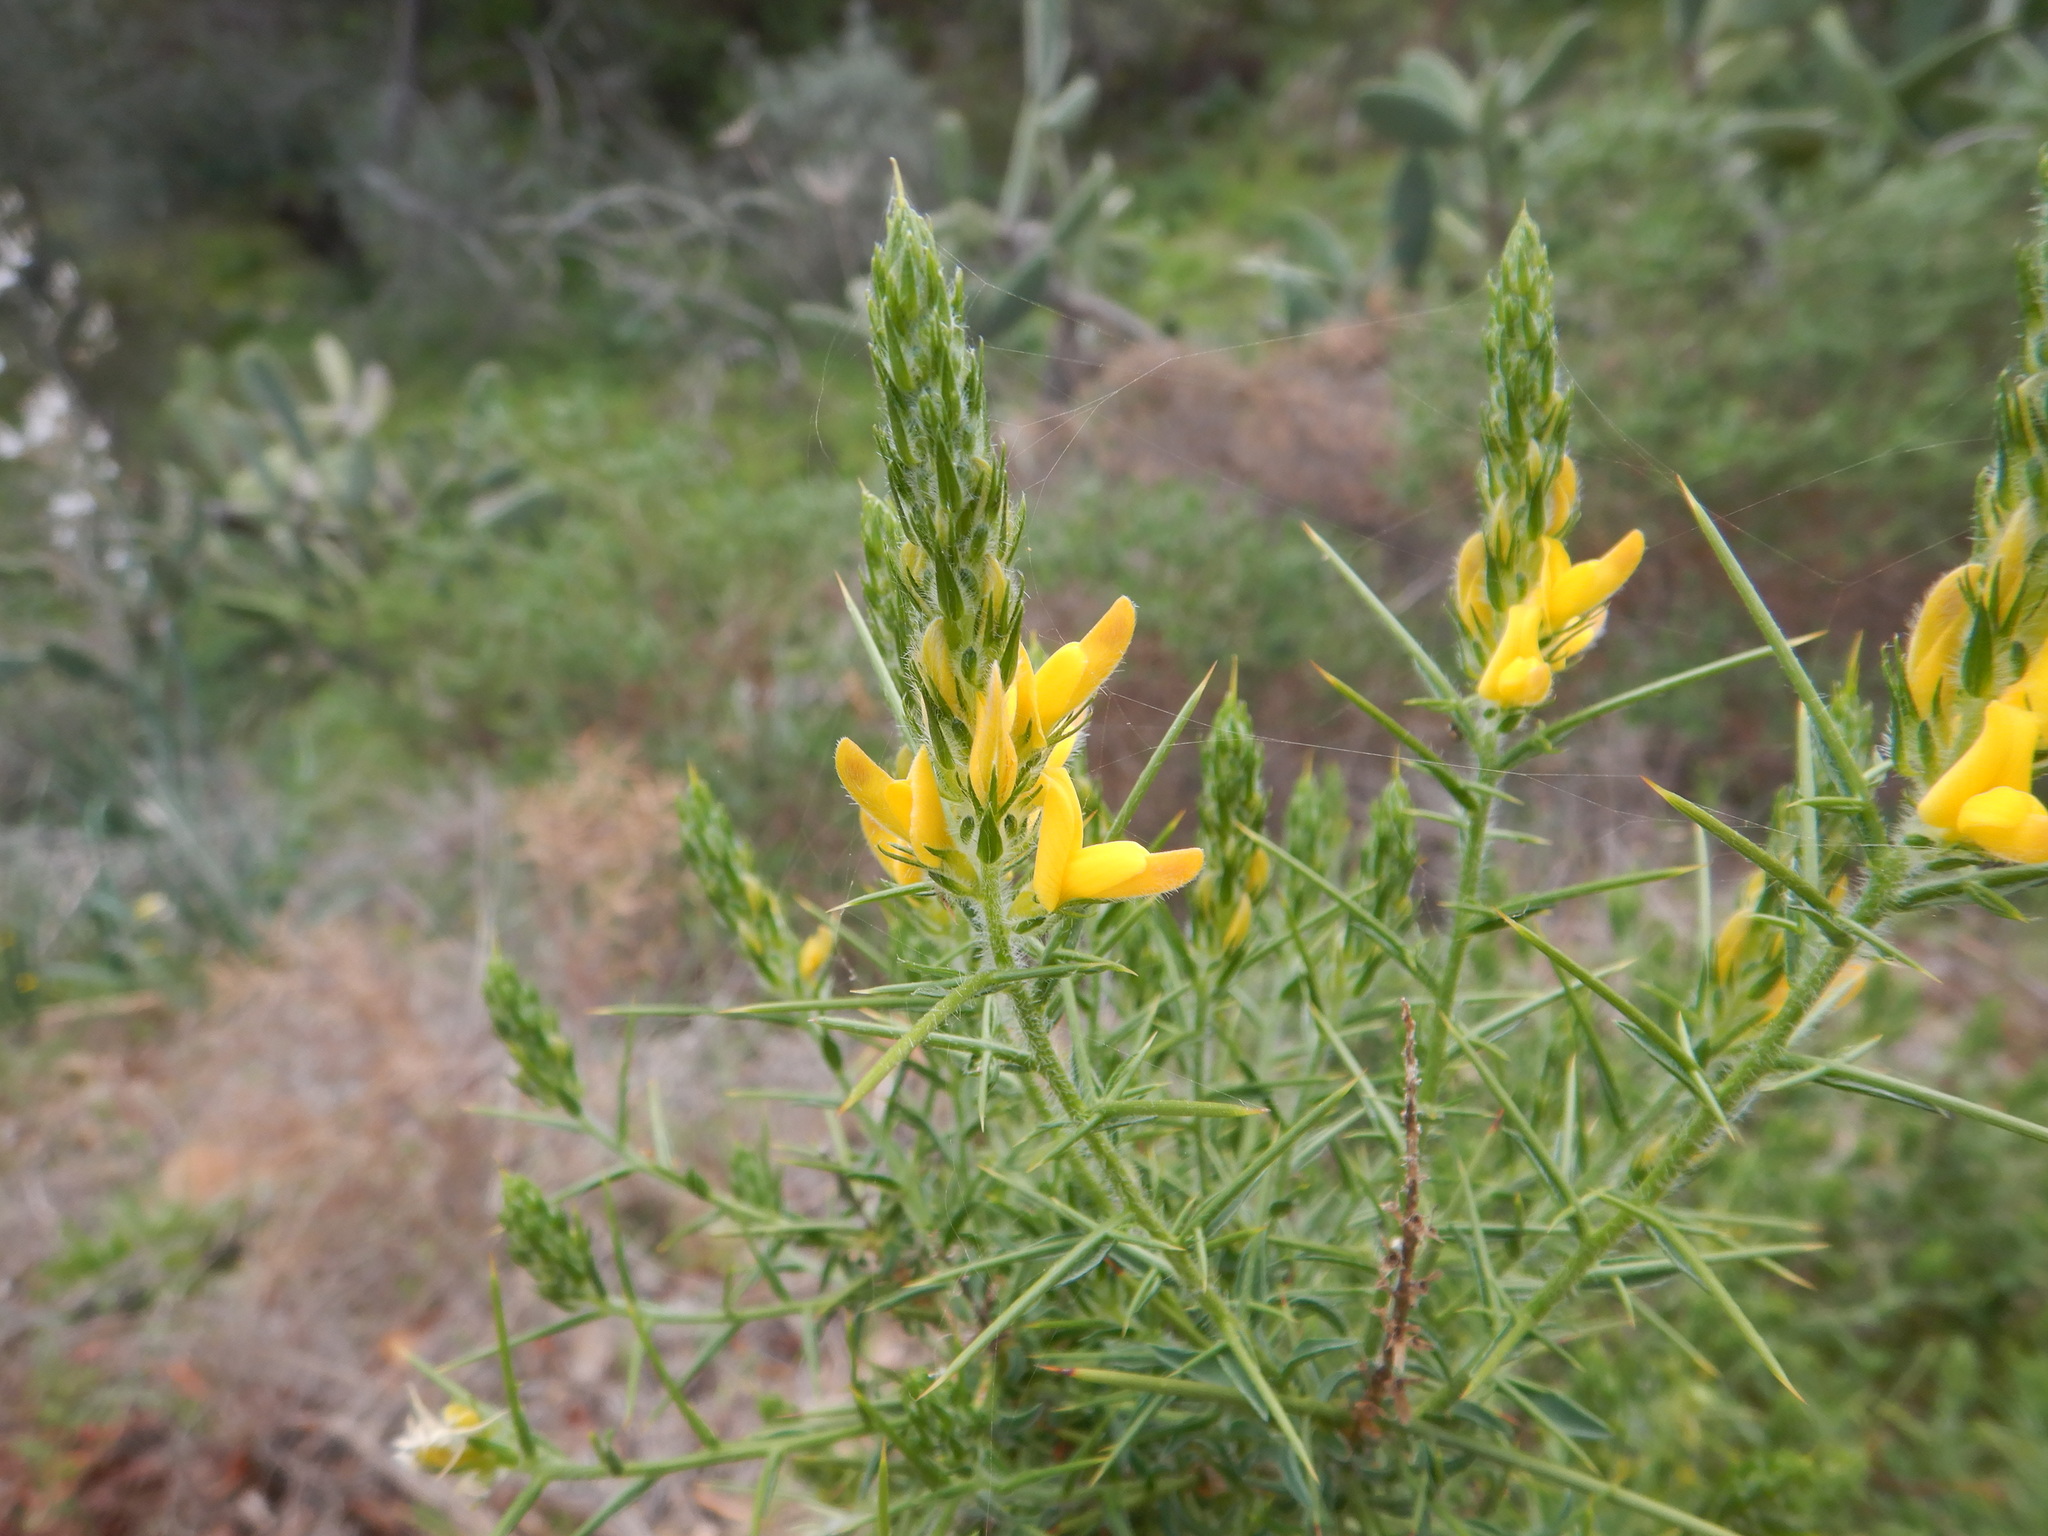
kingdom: Plantae
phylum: Tracheophyta
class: Magnoliopsida
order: Fabales
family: Fabaceae
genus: Genista
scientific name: Genista hirsuta
